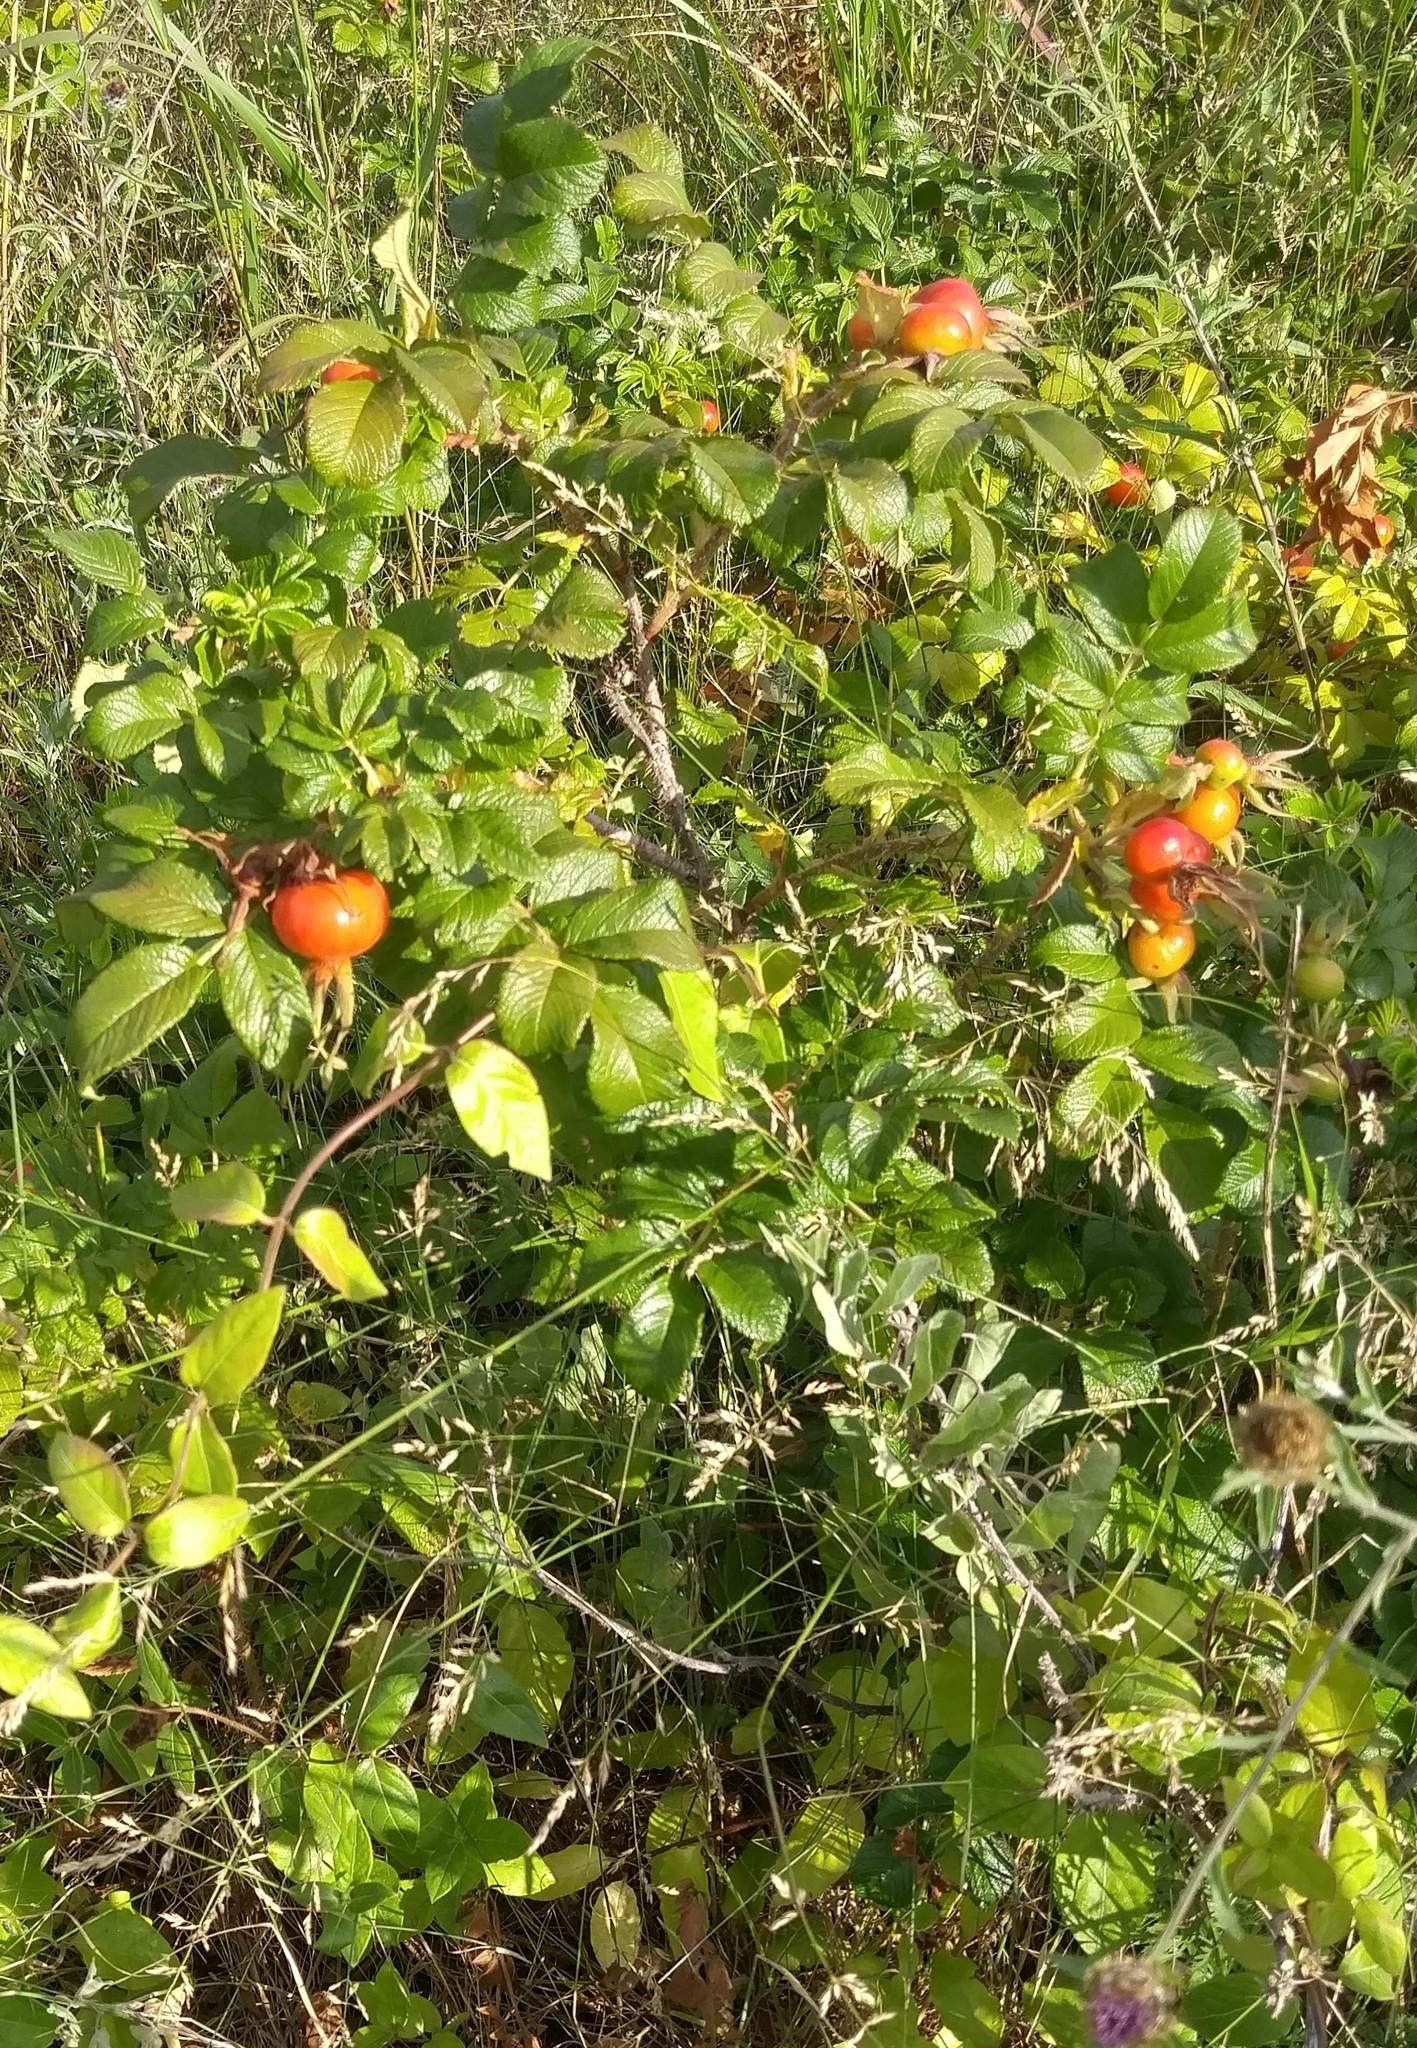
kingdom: Plantae
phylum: Tracheophyta
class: Magnoliopsida
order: Rosales
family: Rosaceae
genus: Rosa
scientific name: Rosa rugosa
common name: Japanese rose
